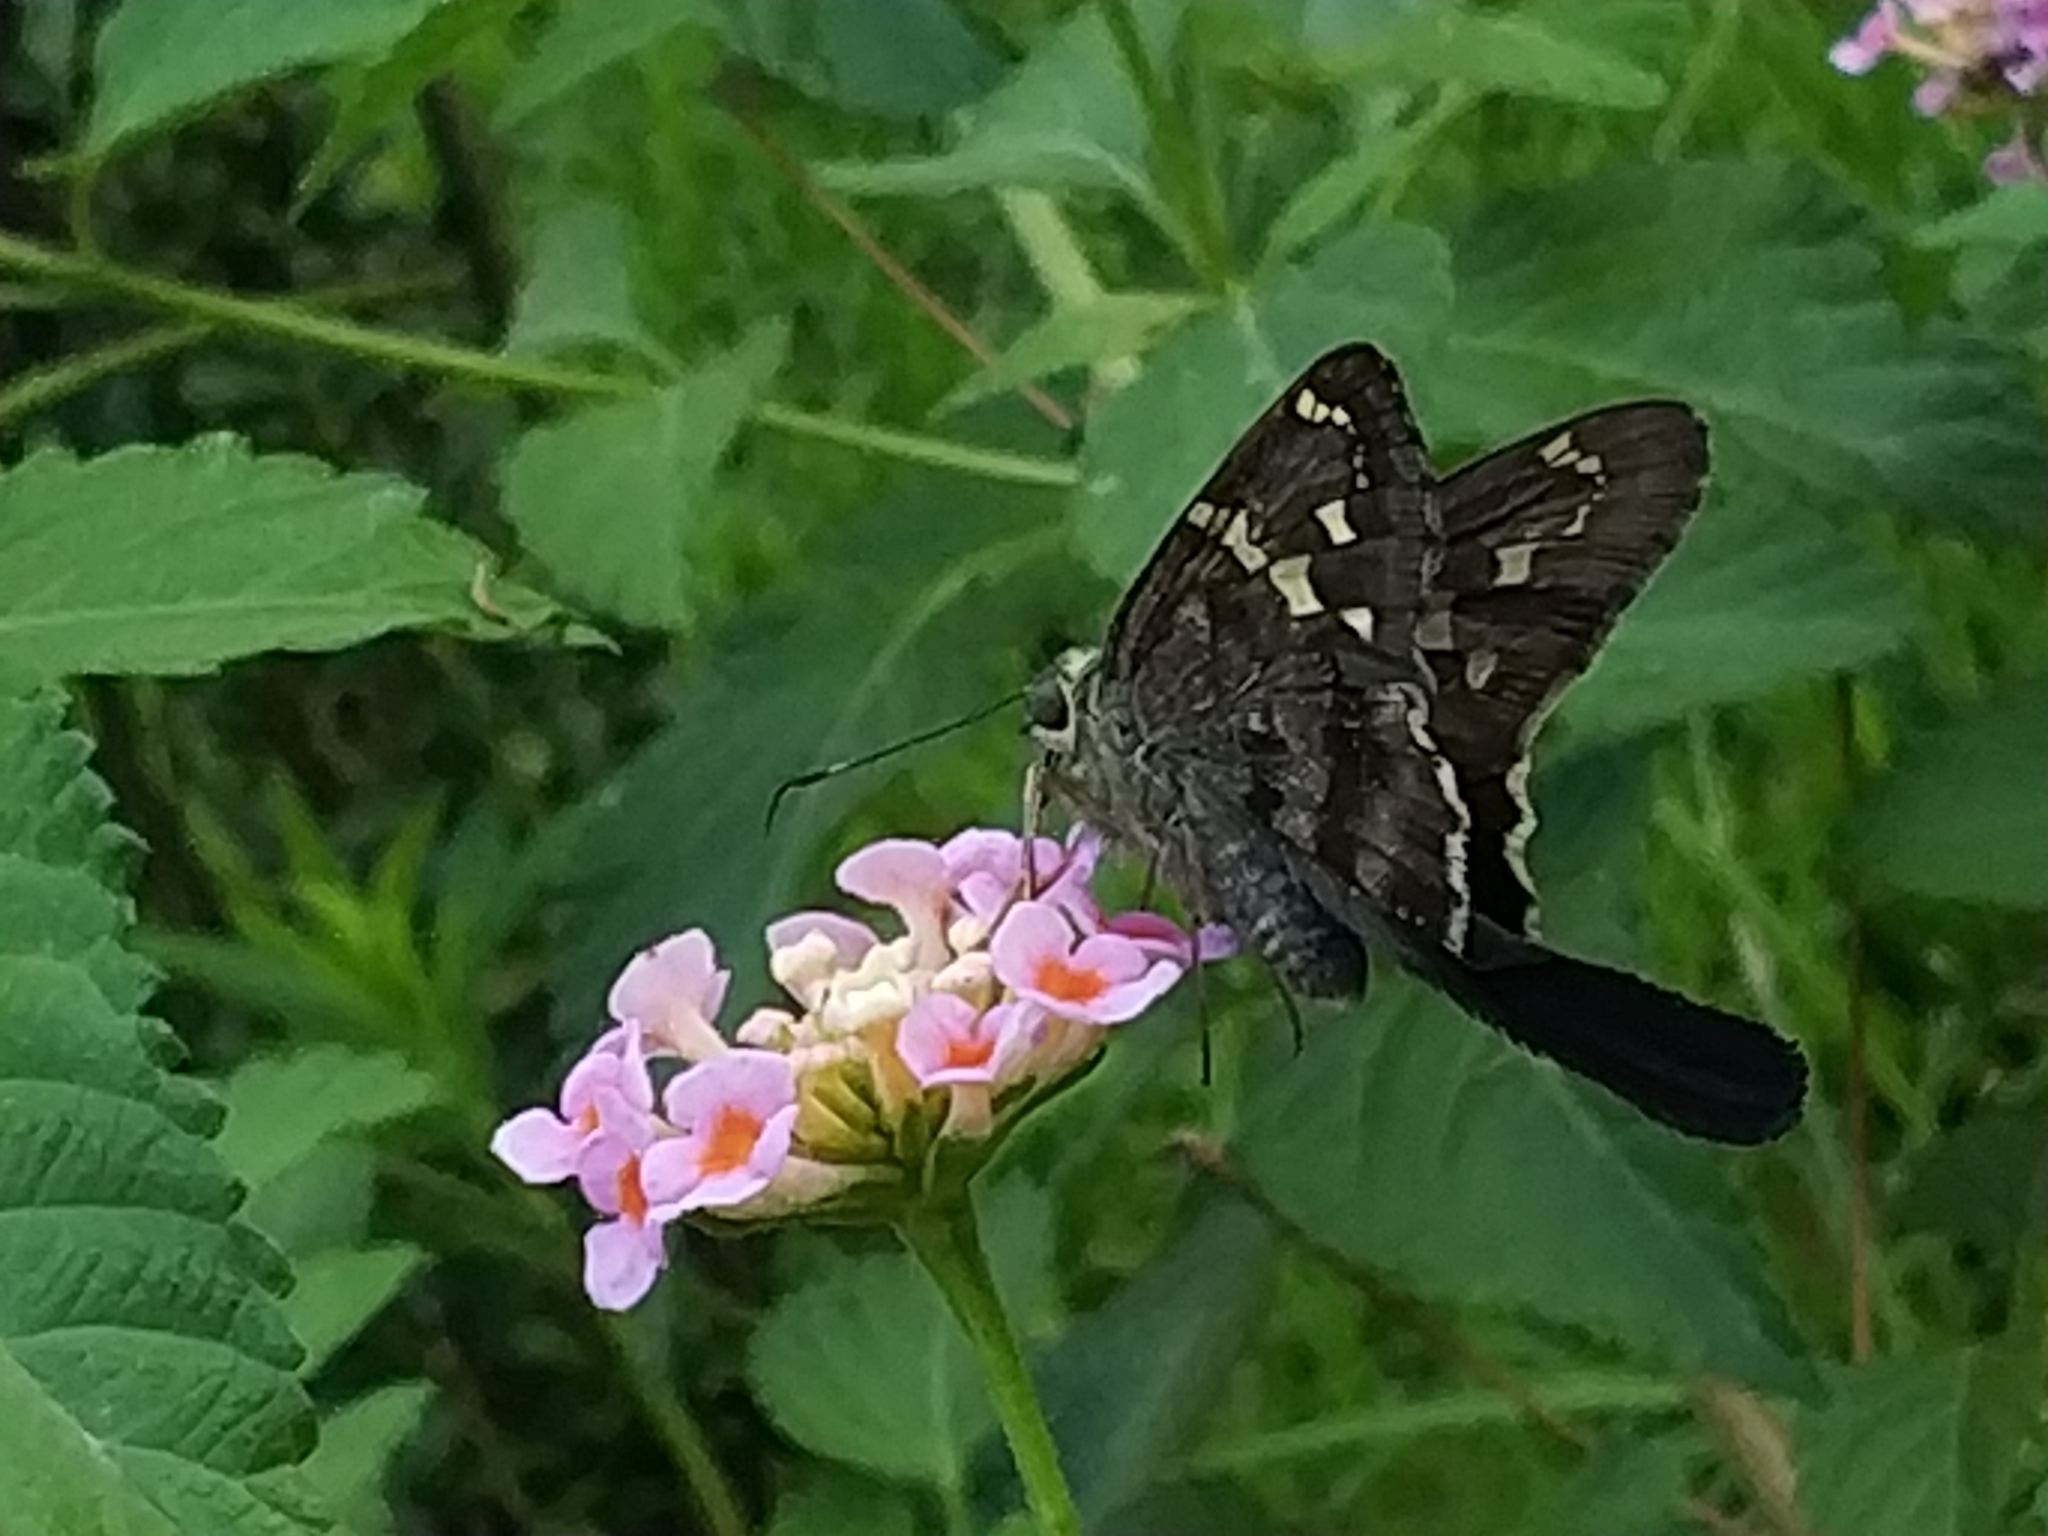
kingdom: Animalia
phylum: Arthropoda
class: Insecta
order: Lepidoptera
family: Hesperiidae
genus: Urbanus
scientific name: Urbanus proteus
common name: Long-tailed skipper
